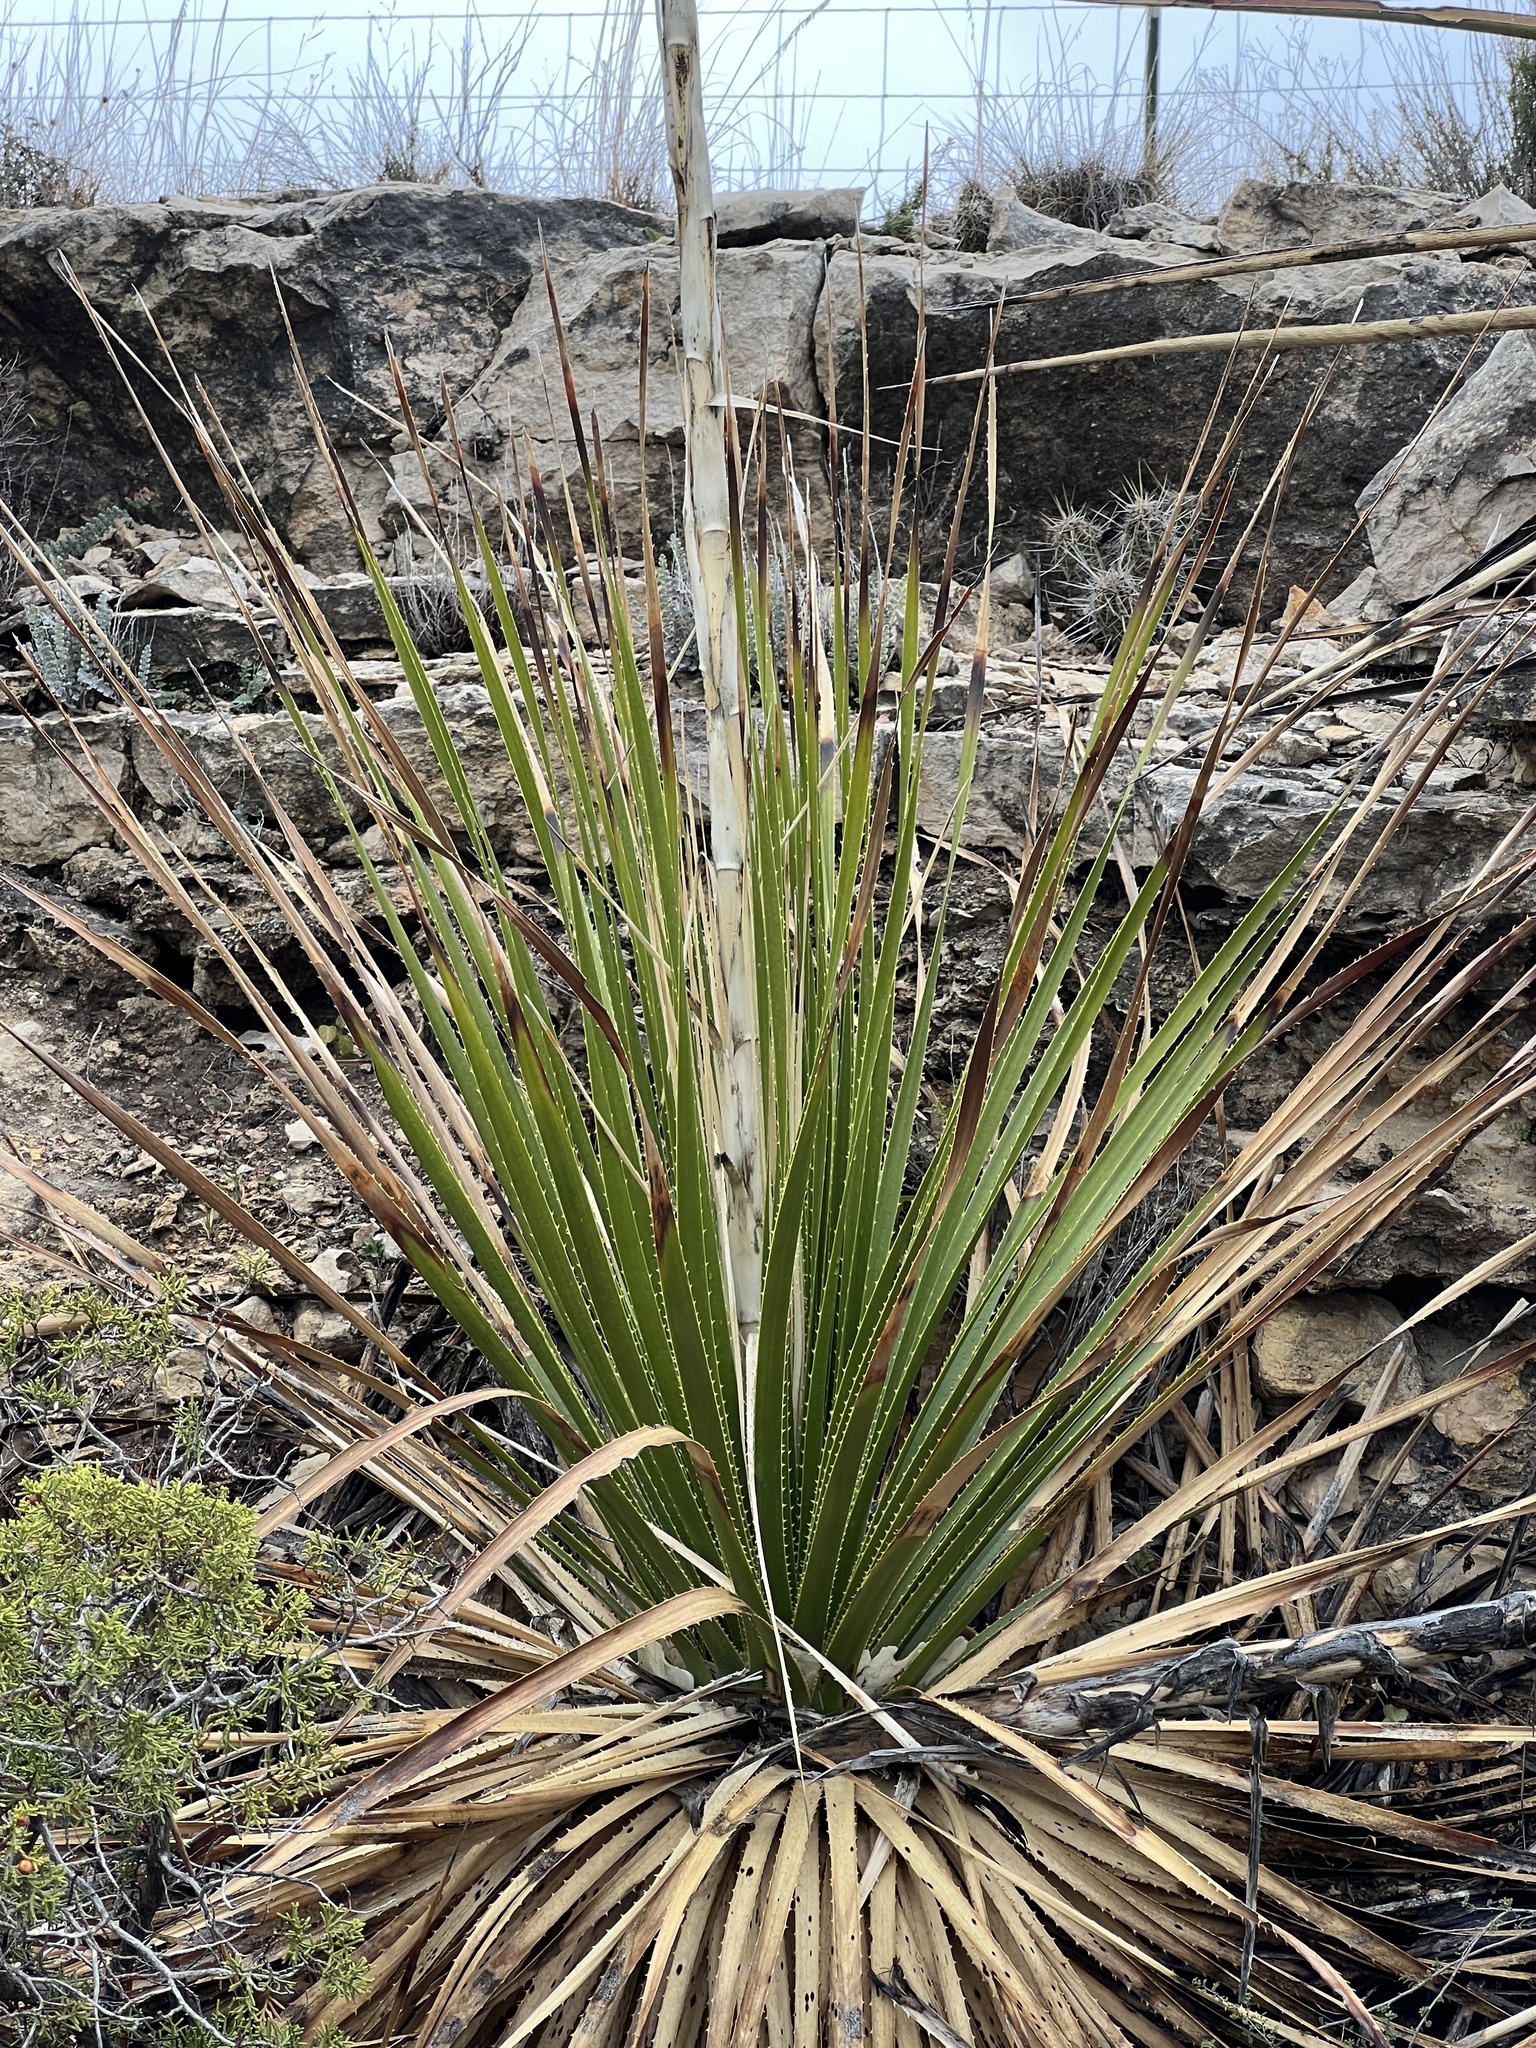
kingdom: Plantae
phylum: Tracheophyta
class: Liliopsida
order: Asparagales
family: Asparagaceae
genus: Dasylirion
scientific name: Dasylirion texanum
